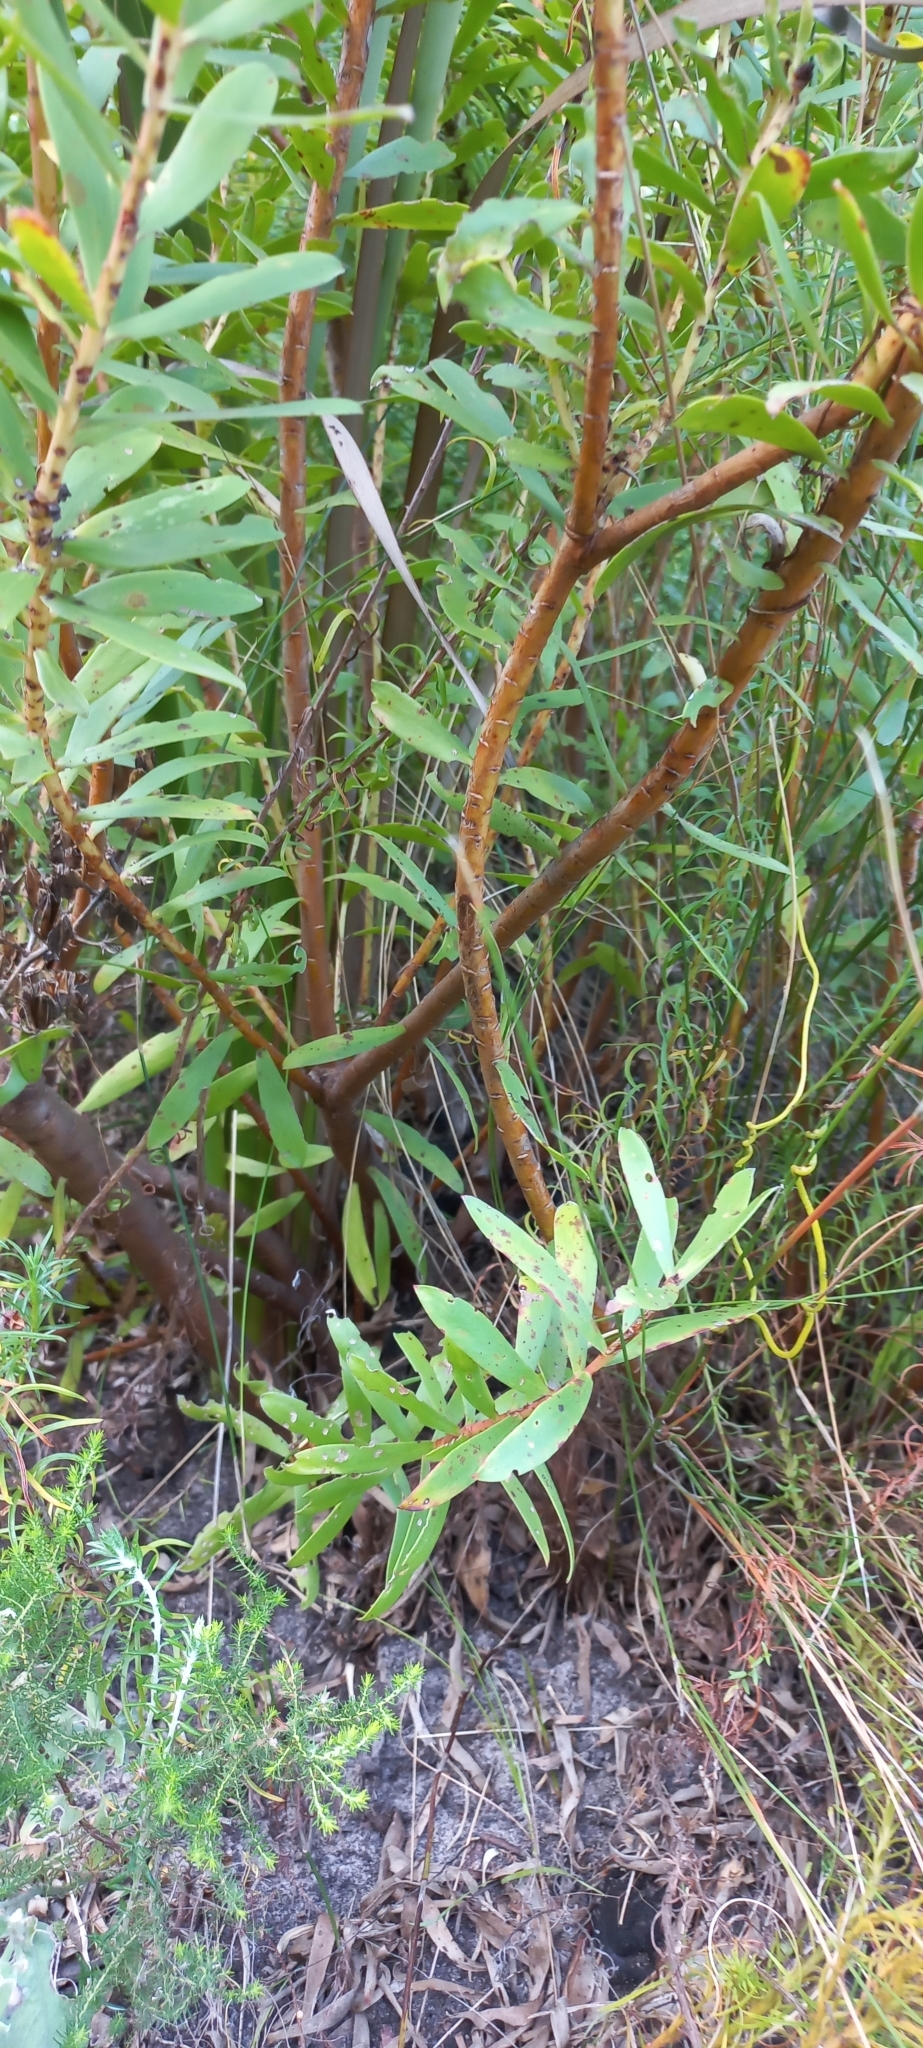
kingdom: Plantae
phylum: Tracheophyta
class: Magnoliopsida
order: Proteales
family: Proteaceae
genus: Leucadendron
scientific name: Leucadendron gandogeri
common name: Broad-leaf conebush
